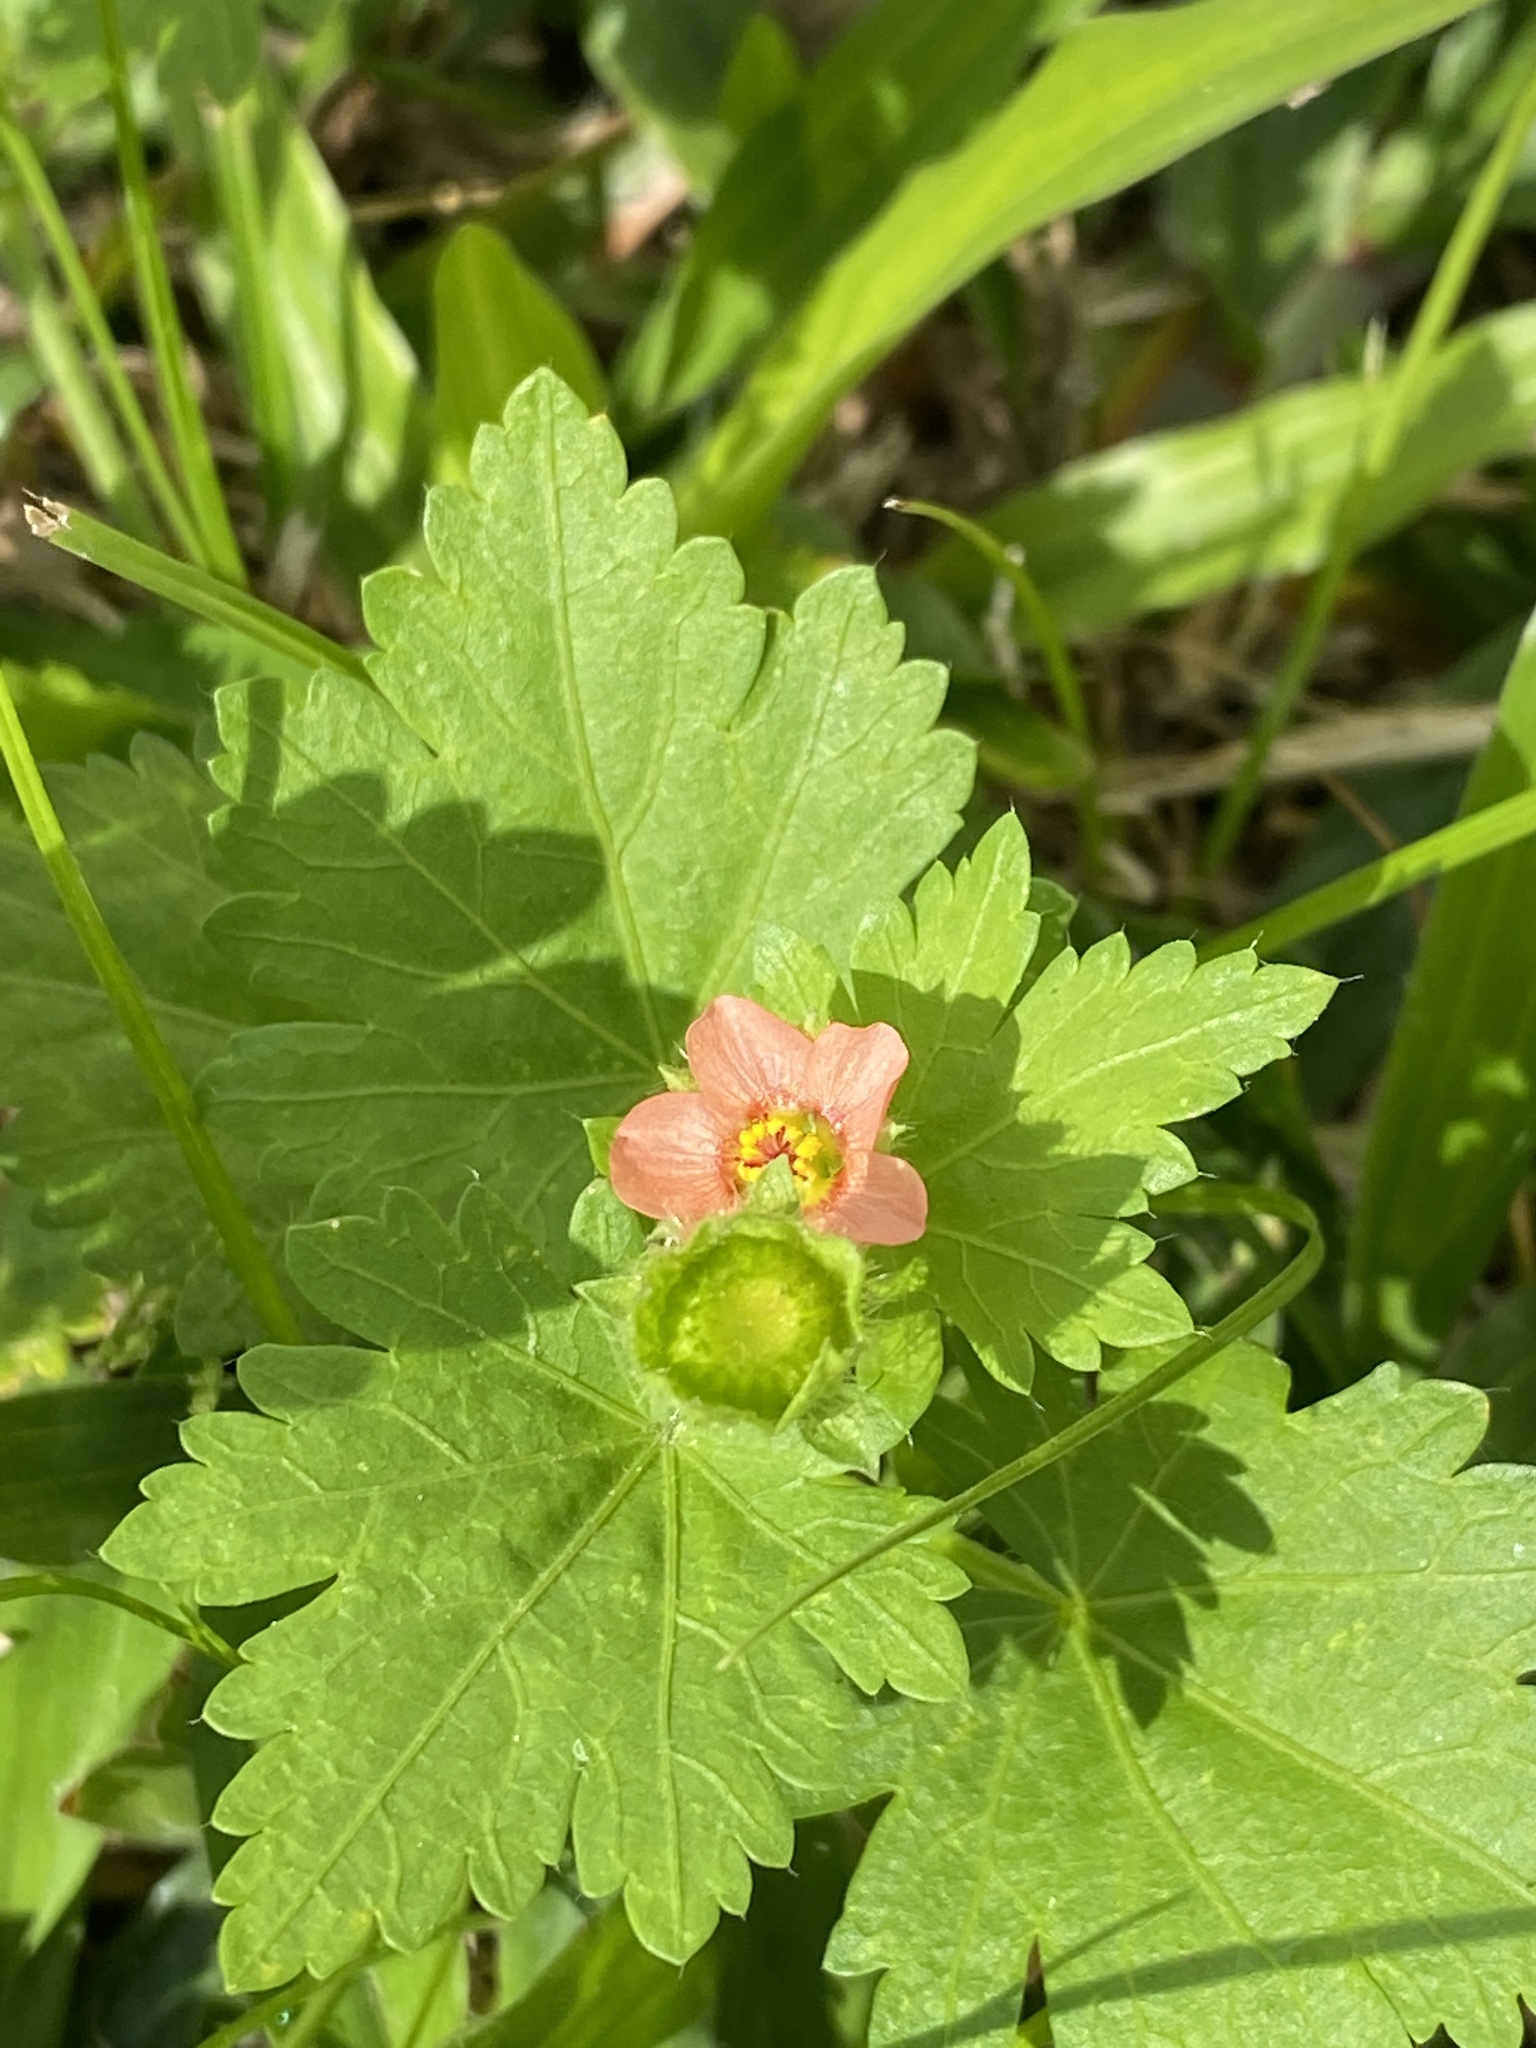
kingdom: Plantae
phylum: Tracheophyta
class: Magnoliopsida
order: Malvales
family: Malvaceae
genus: Modiola
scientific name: Modiola caroliniana
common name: Carolina bristlemallow
